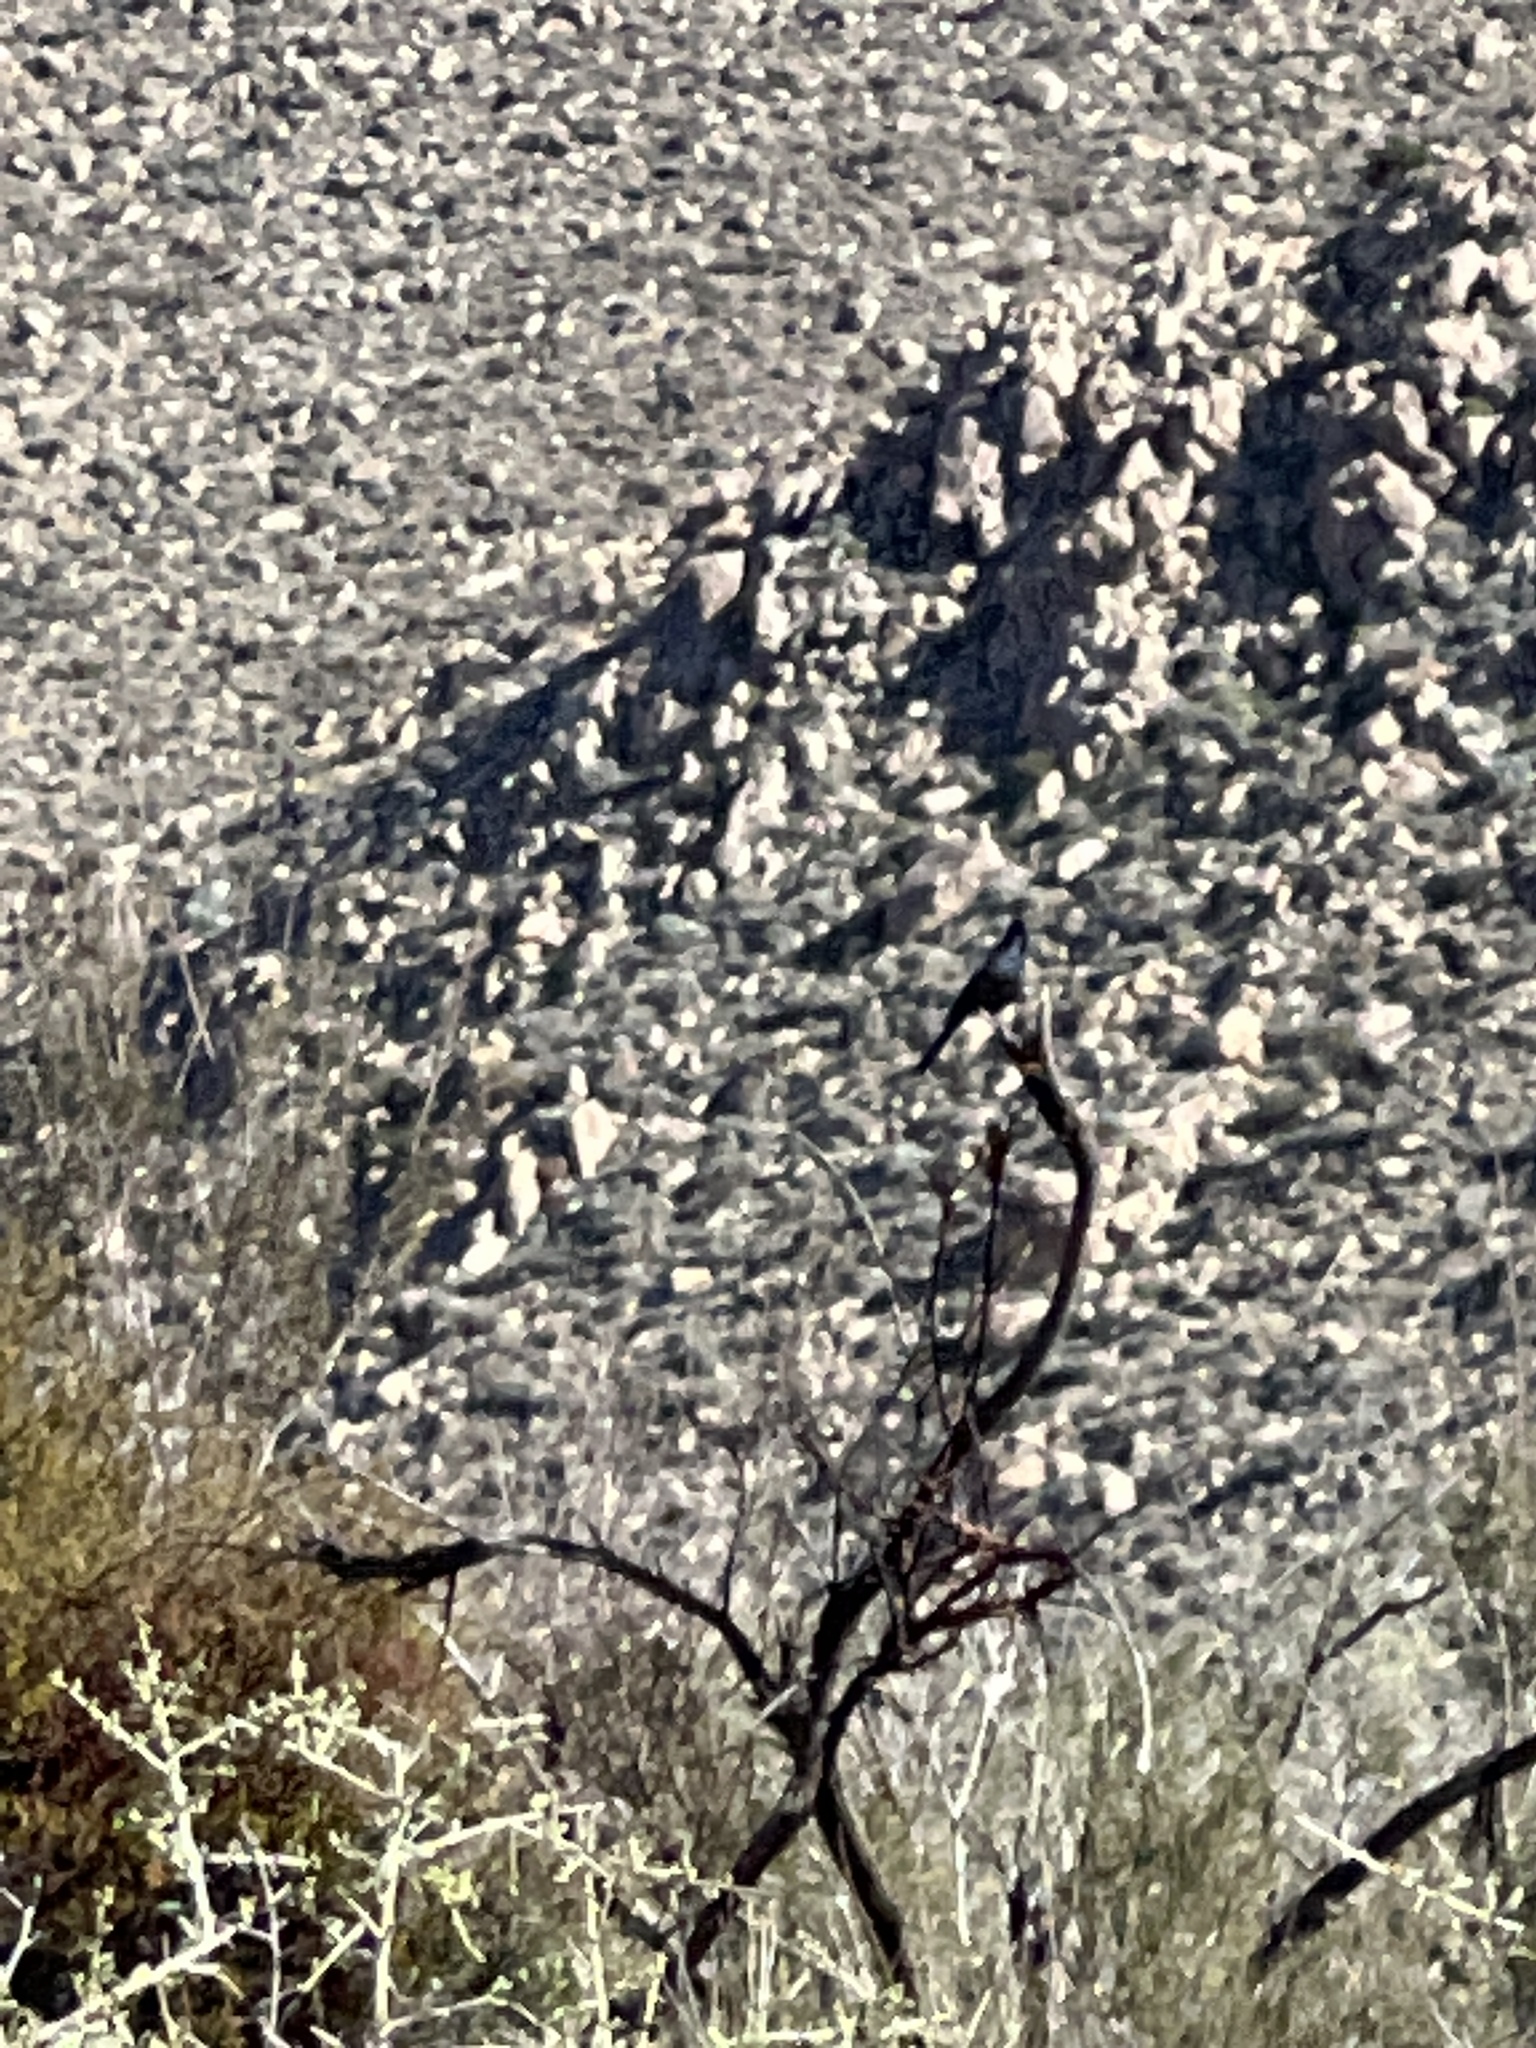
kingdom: Animalia
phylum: Chordata
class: Aves
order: Passeriformes
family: Ptilogonatidae
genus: Phainopepla
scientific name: Phainopepla nitens
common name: Phainopepla
